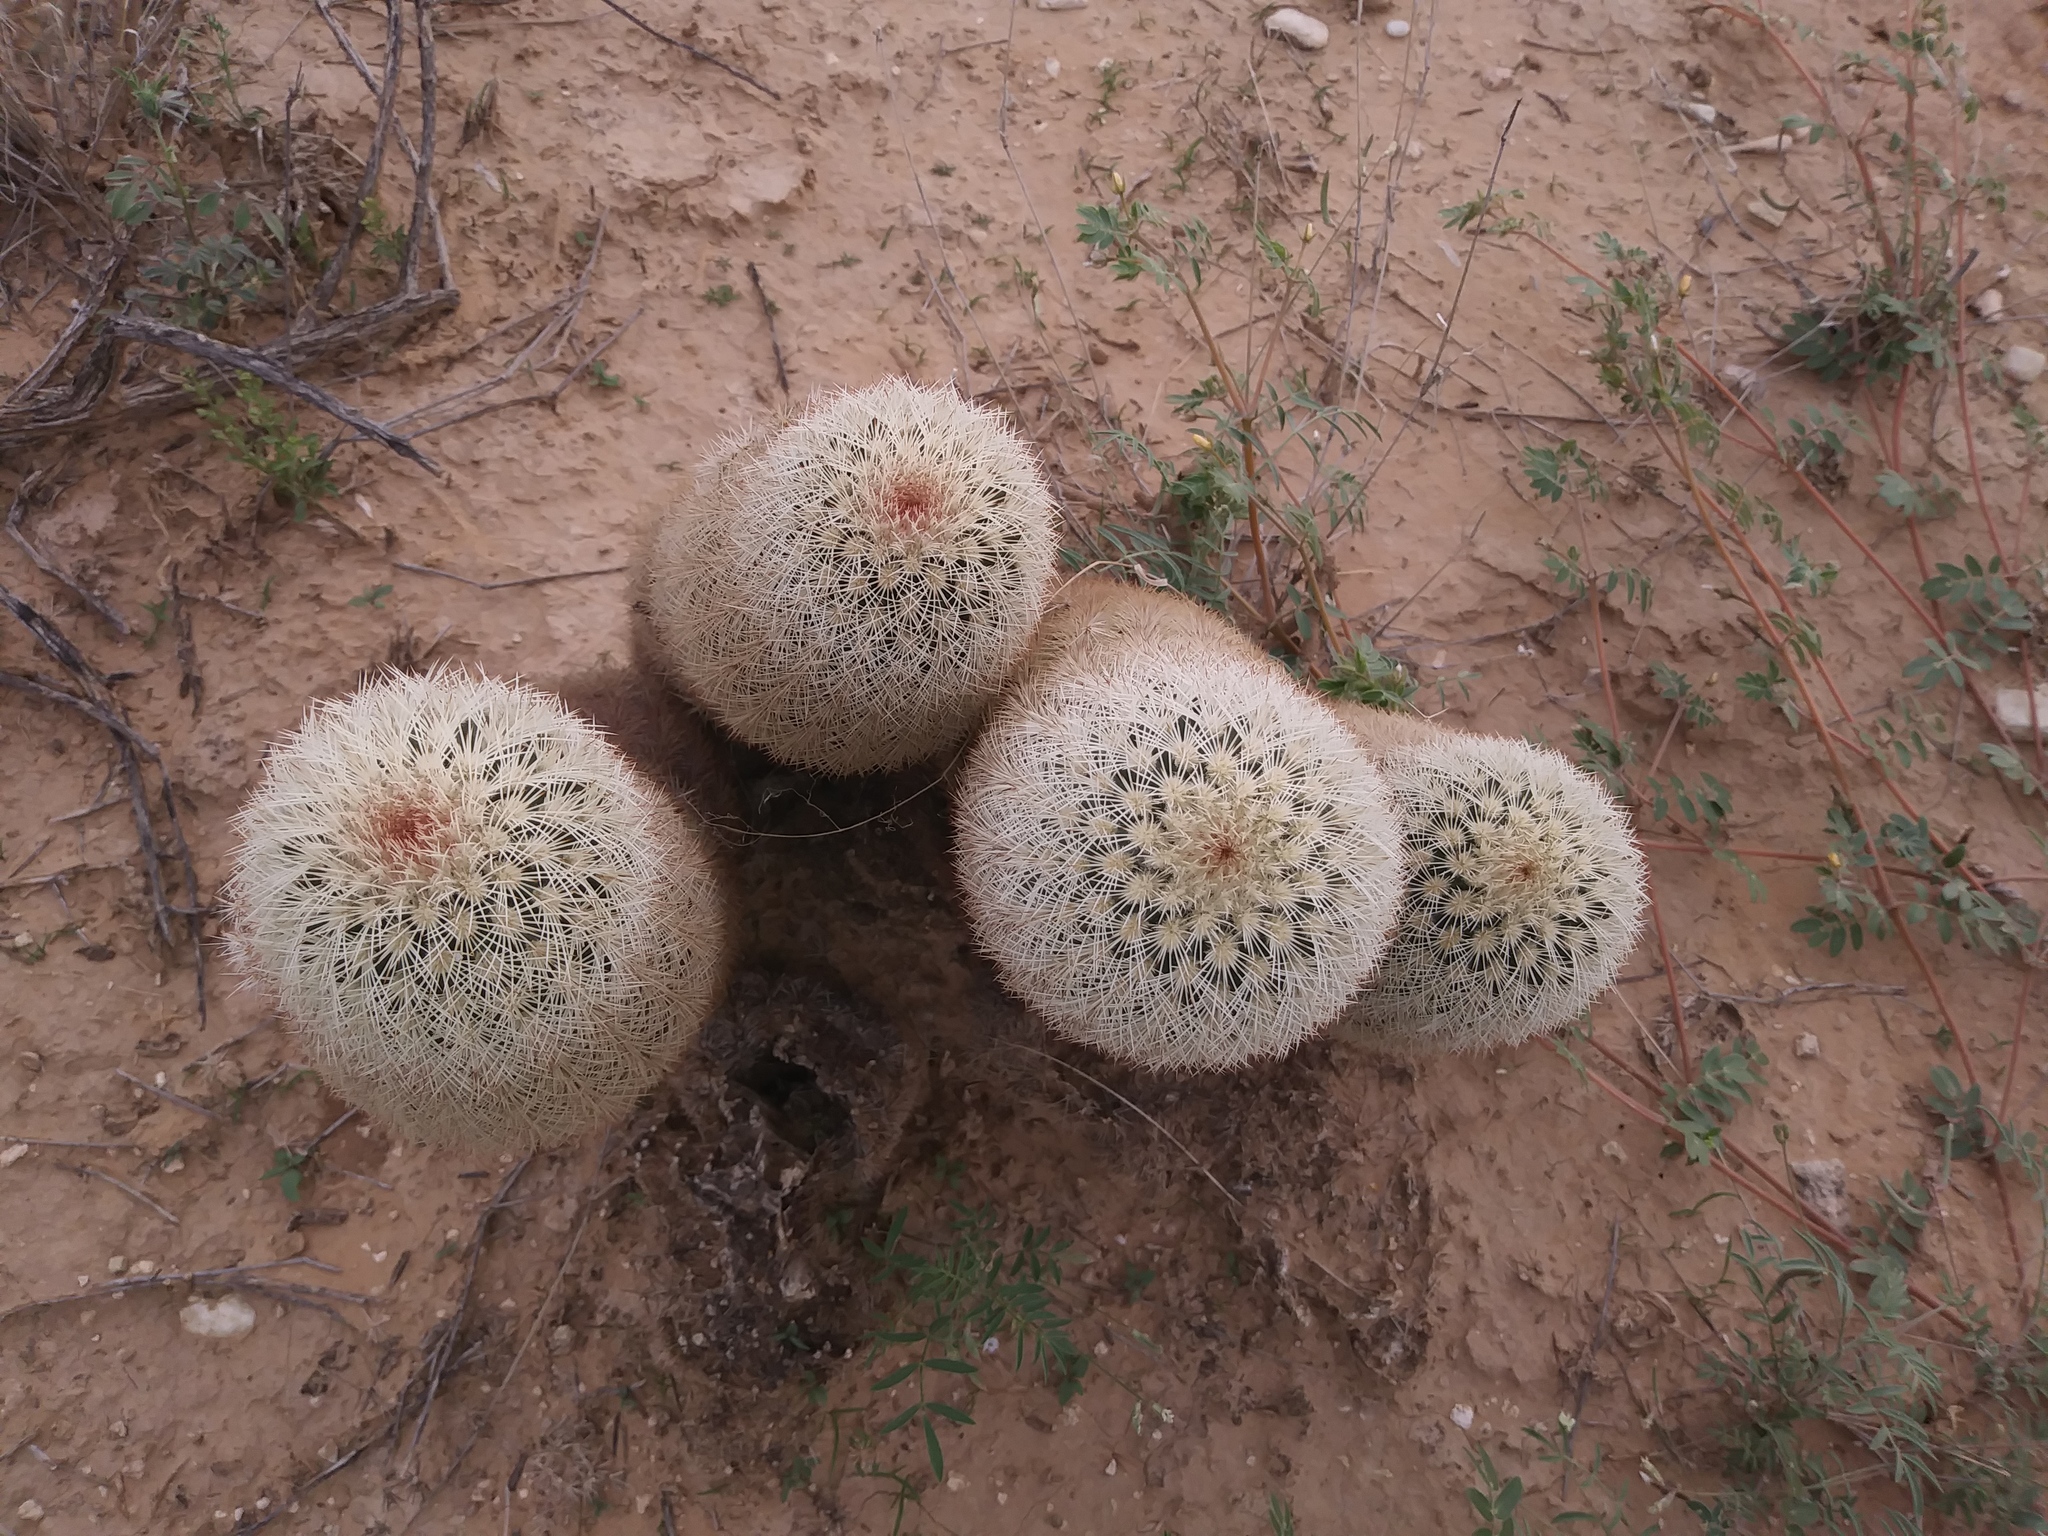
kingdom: Plantae
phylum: Tracheophyta
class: Magnoliopsida
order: Caryophyllales
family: Cactaceae
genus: Echinocereus
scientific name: Echinocereus dasyacanthus
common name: Spiny hedgehog cactus
